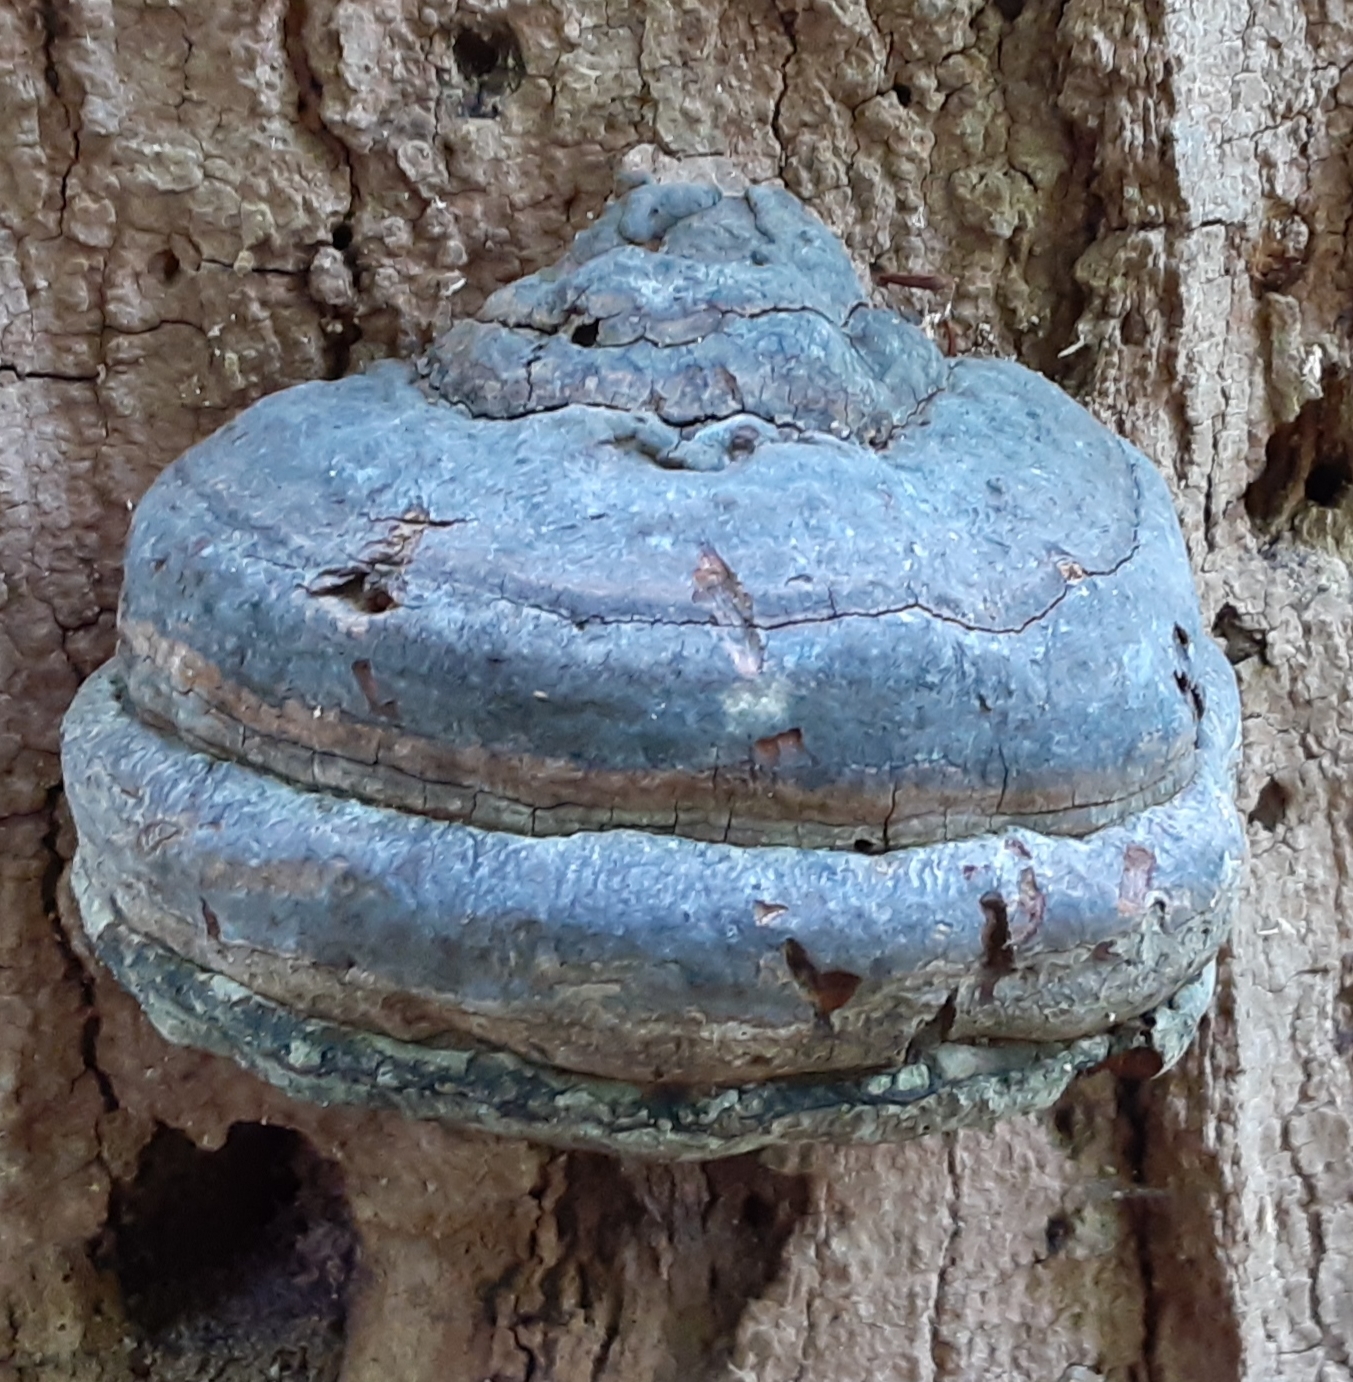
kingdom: Fungi
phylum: Basidiomycota
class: Agaricomycetes
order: Polyporales
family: Polyporaceae
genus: Fomes
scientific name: Fomes fomentarius
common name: Hoof fungus
